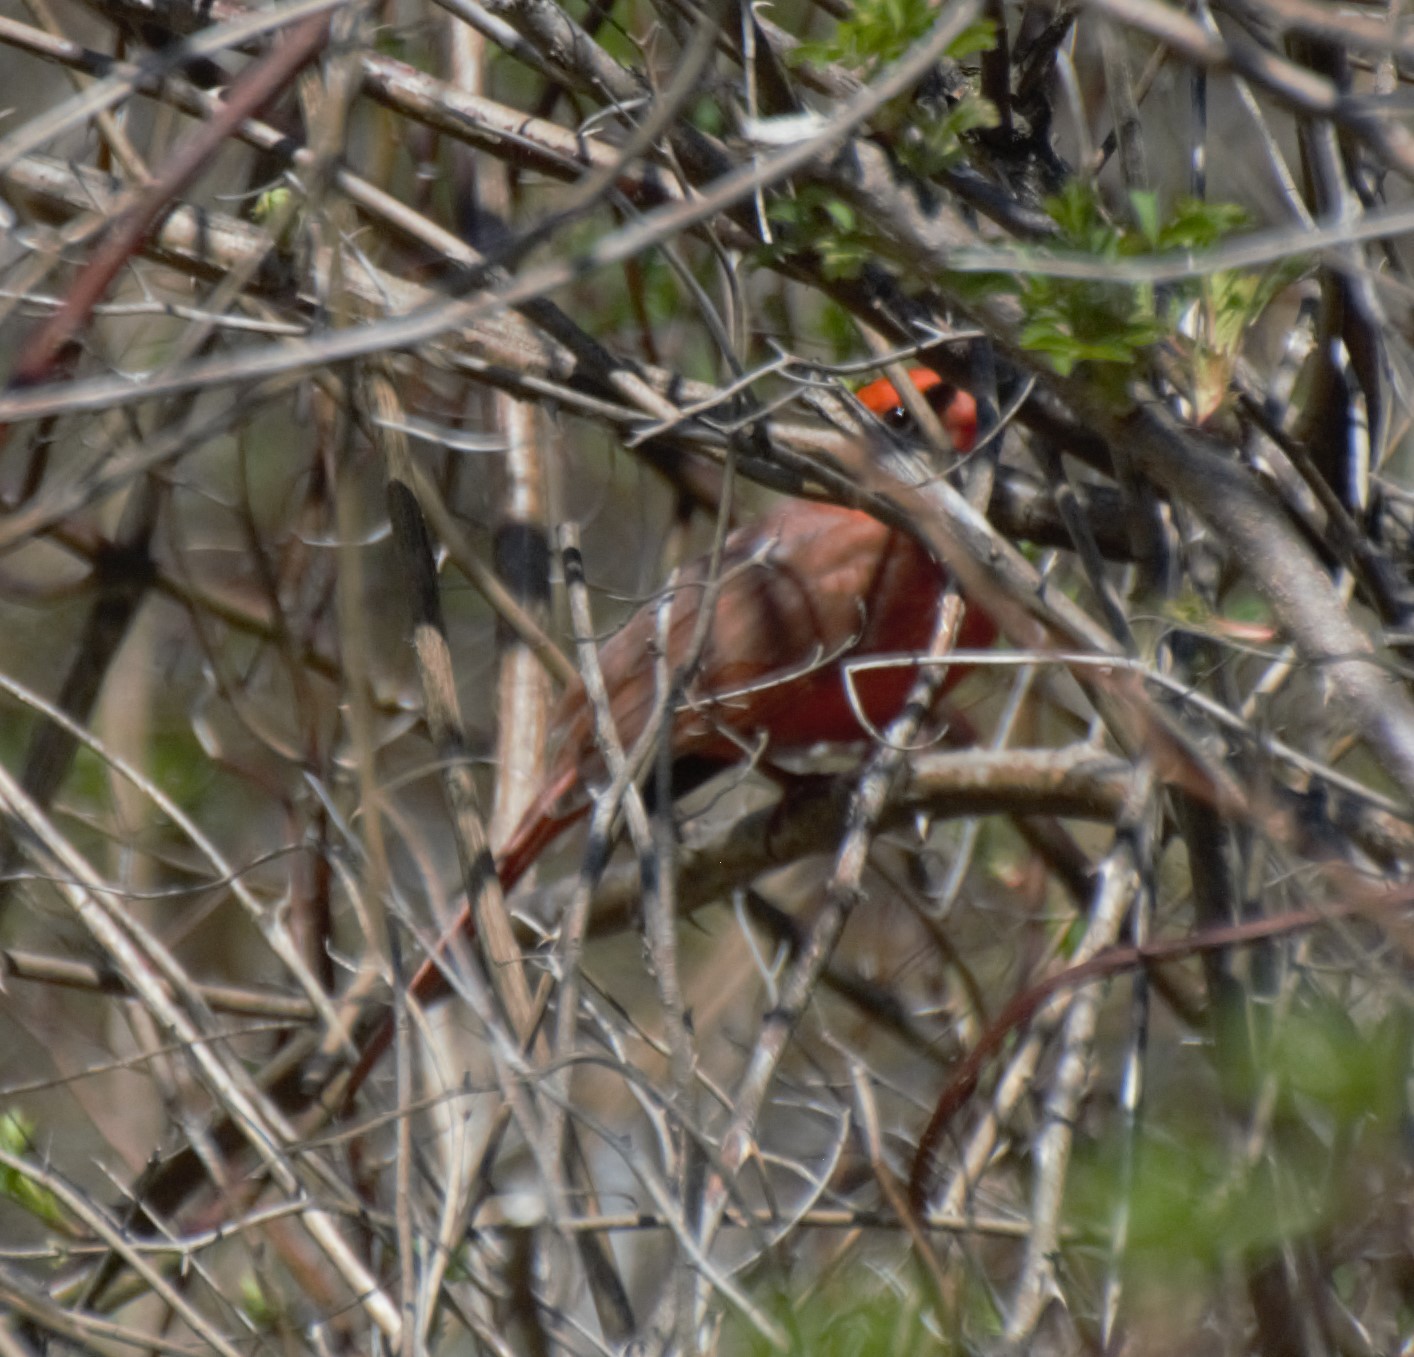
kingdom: Animalia
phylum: Chordata
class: Aves
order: Passeriformes
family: Cardinalidae
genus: Cardinalis
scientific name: Cardinalis cardinalis
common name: Northern cardinal
